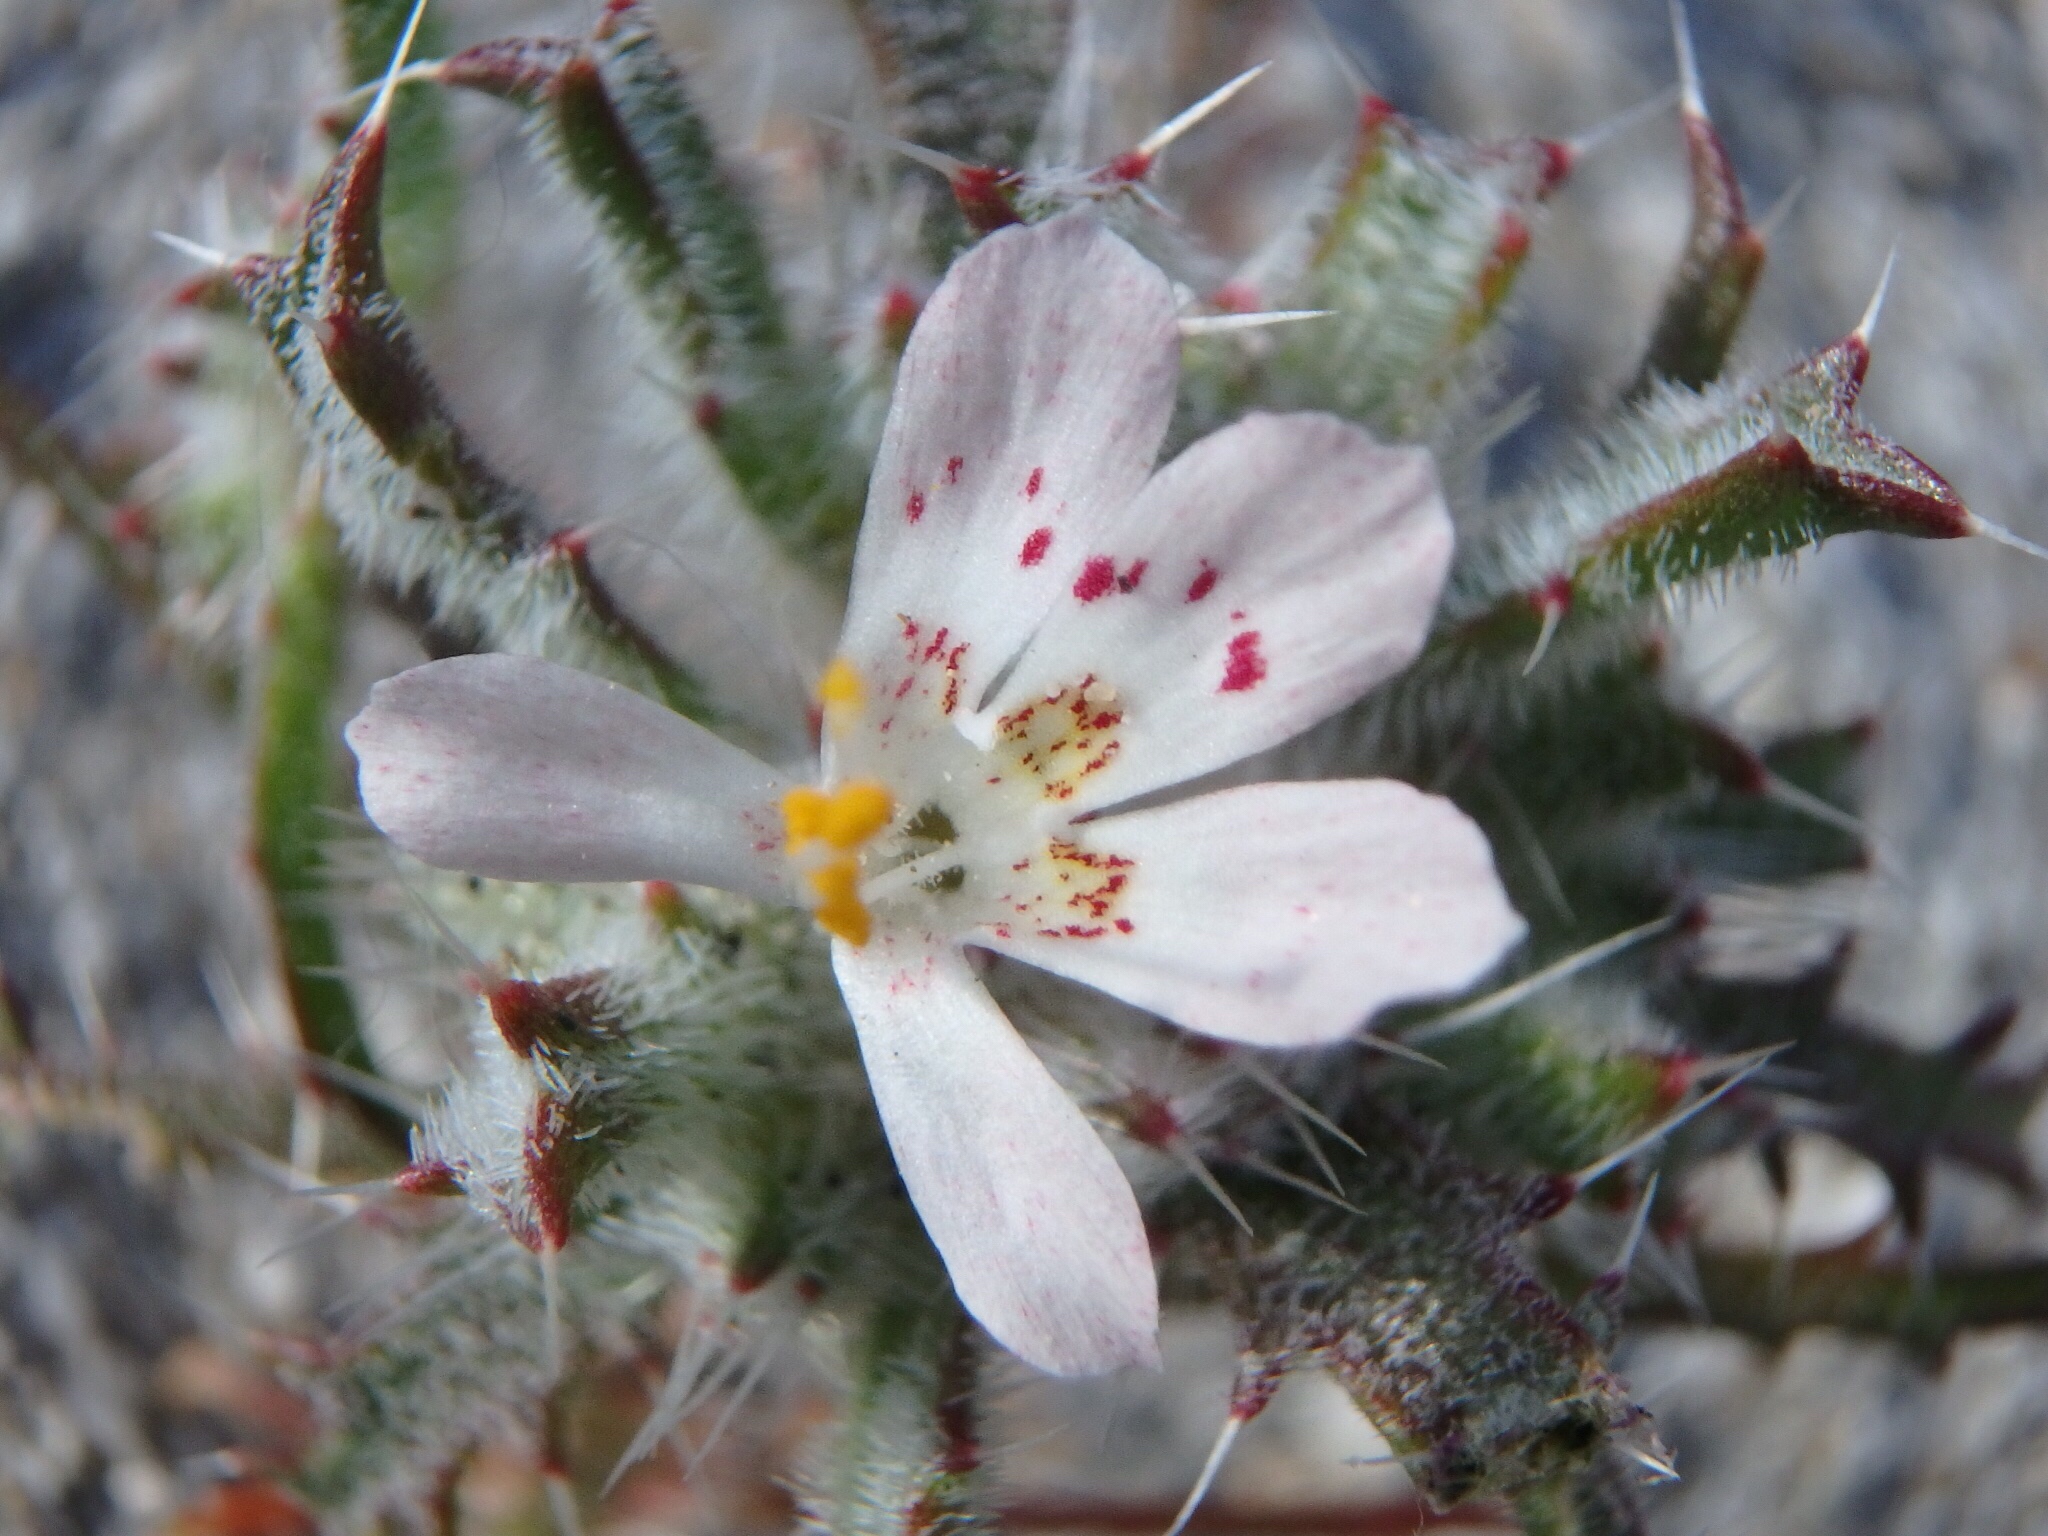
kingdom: Plantae
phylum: Tracheophyta
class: Magnoliopsida
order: Ericales
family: Polemoniaceae
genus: Loeseliastrum
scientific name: Loeseliastrum matthewsii
